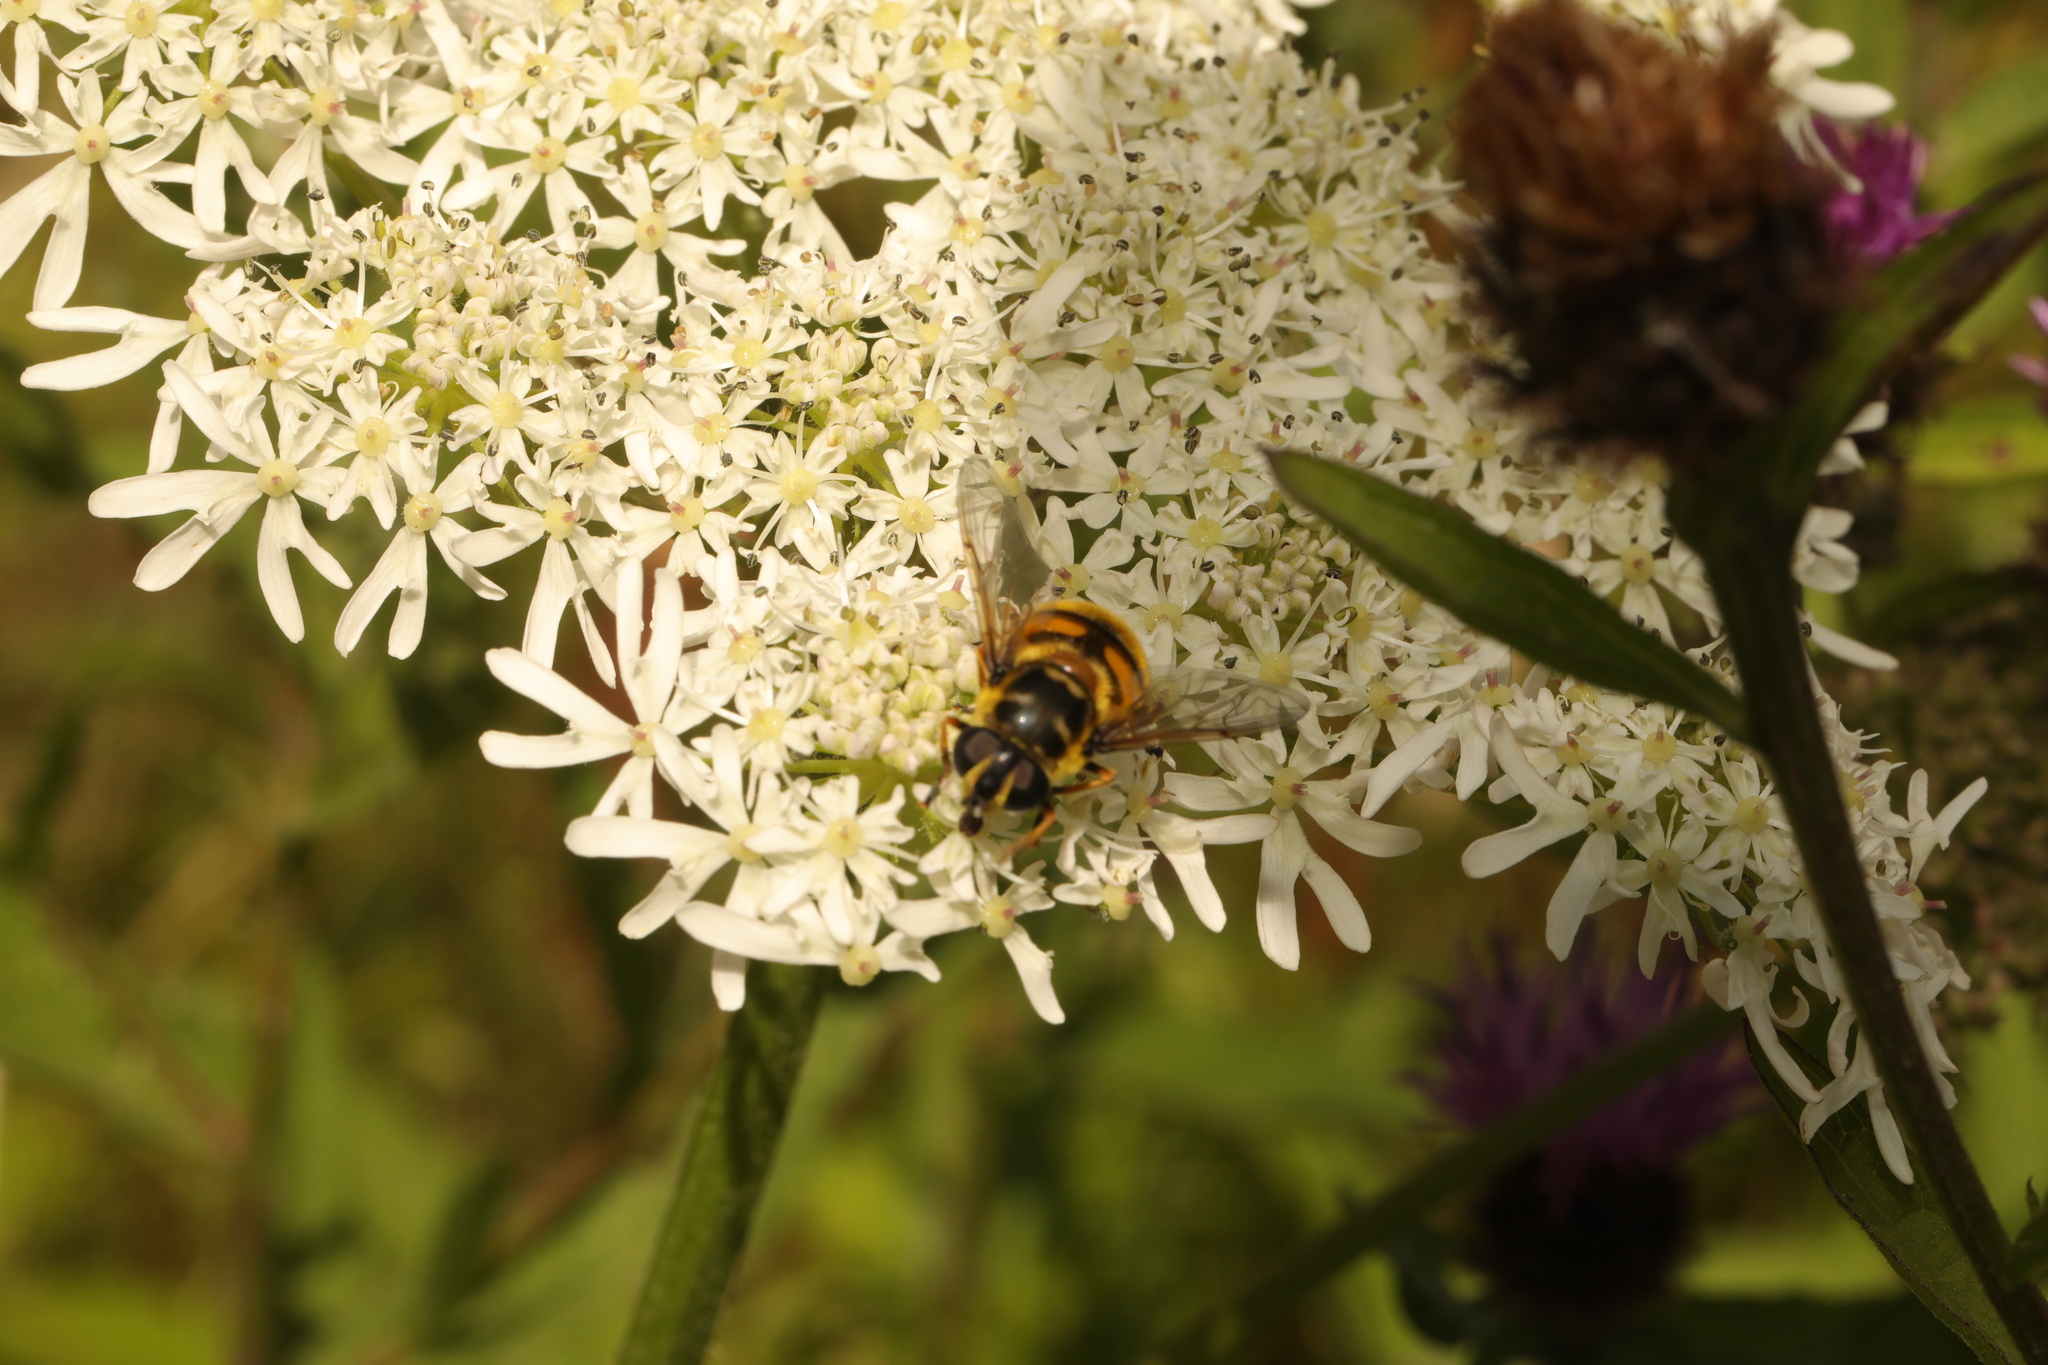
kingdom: Animalia
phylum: Arthropoda
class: Insecta
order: Diptera
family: Syrphidae
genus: Myathropa
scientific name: Myathropa florea
